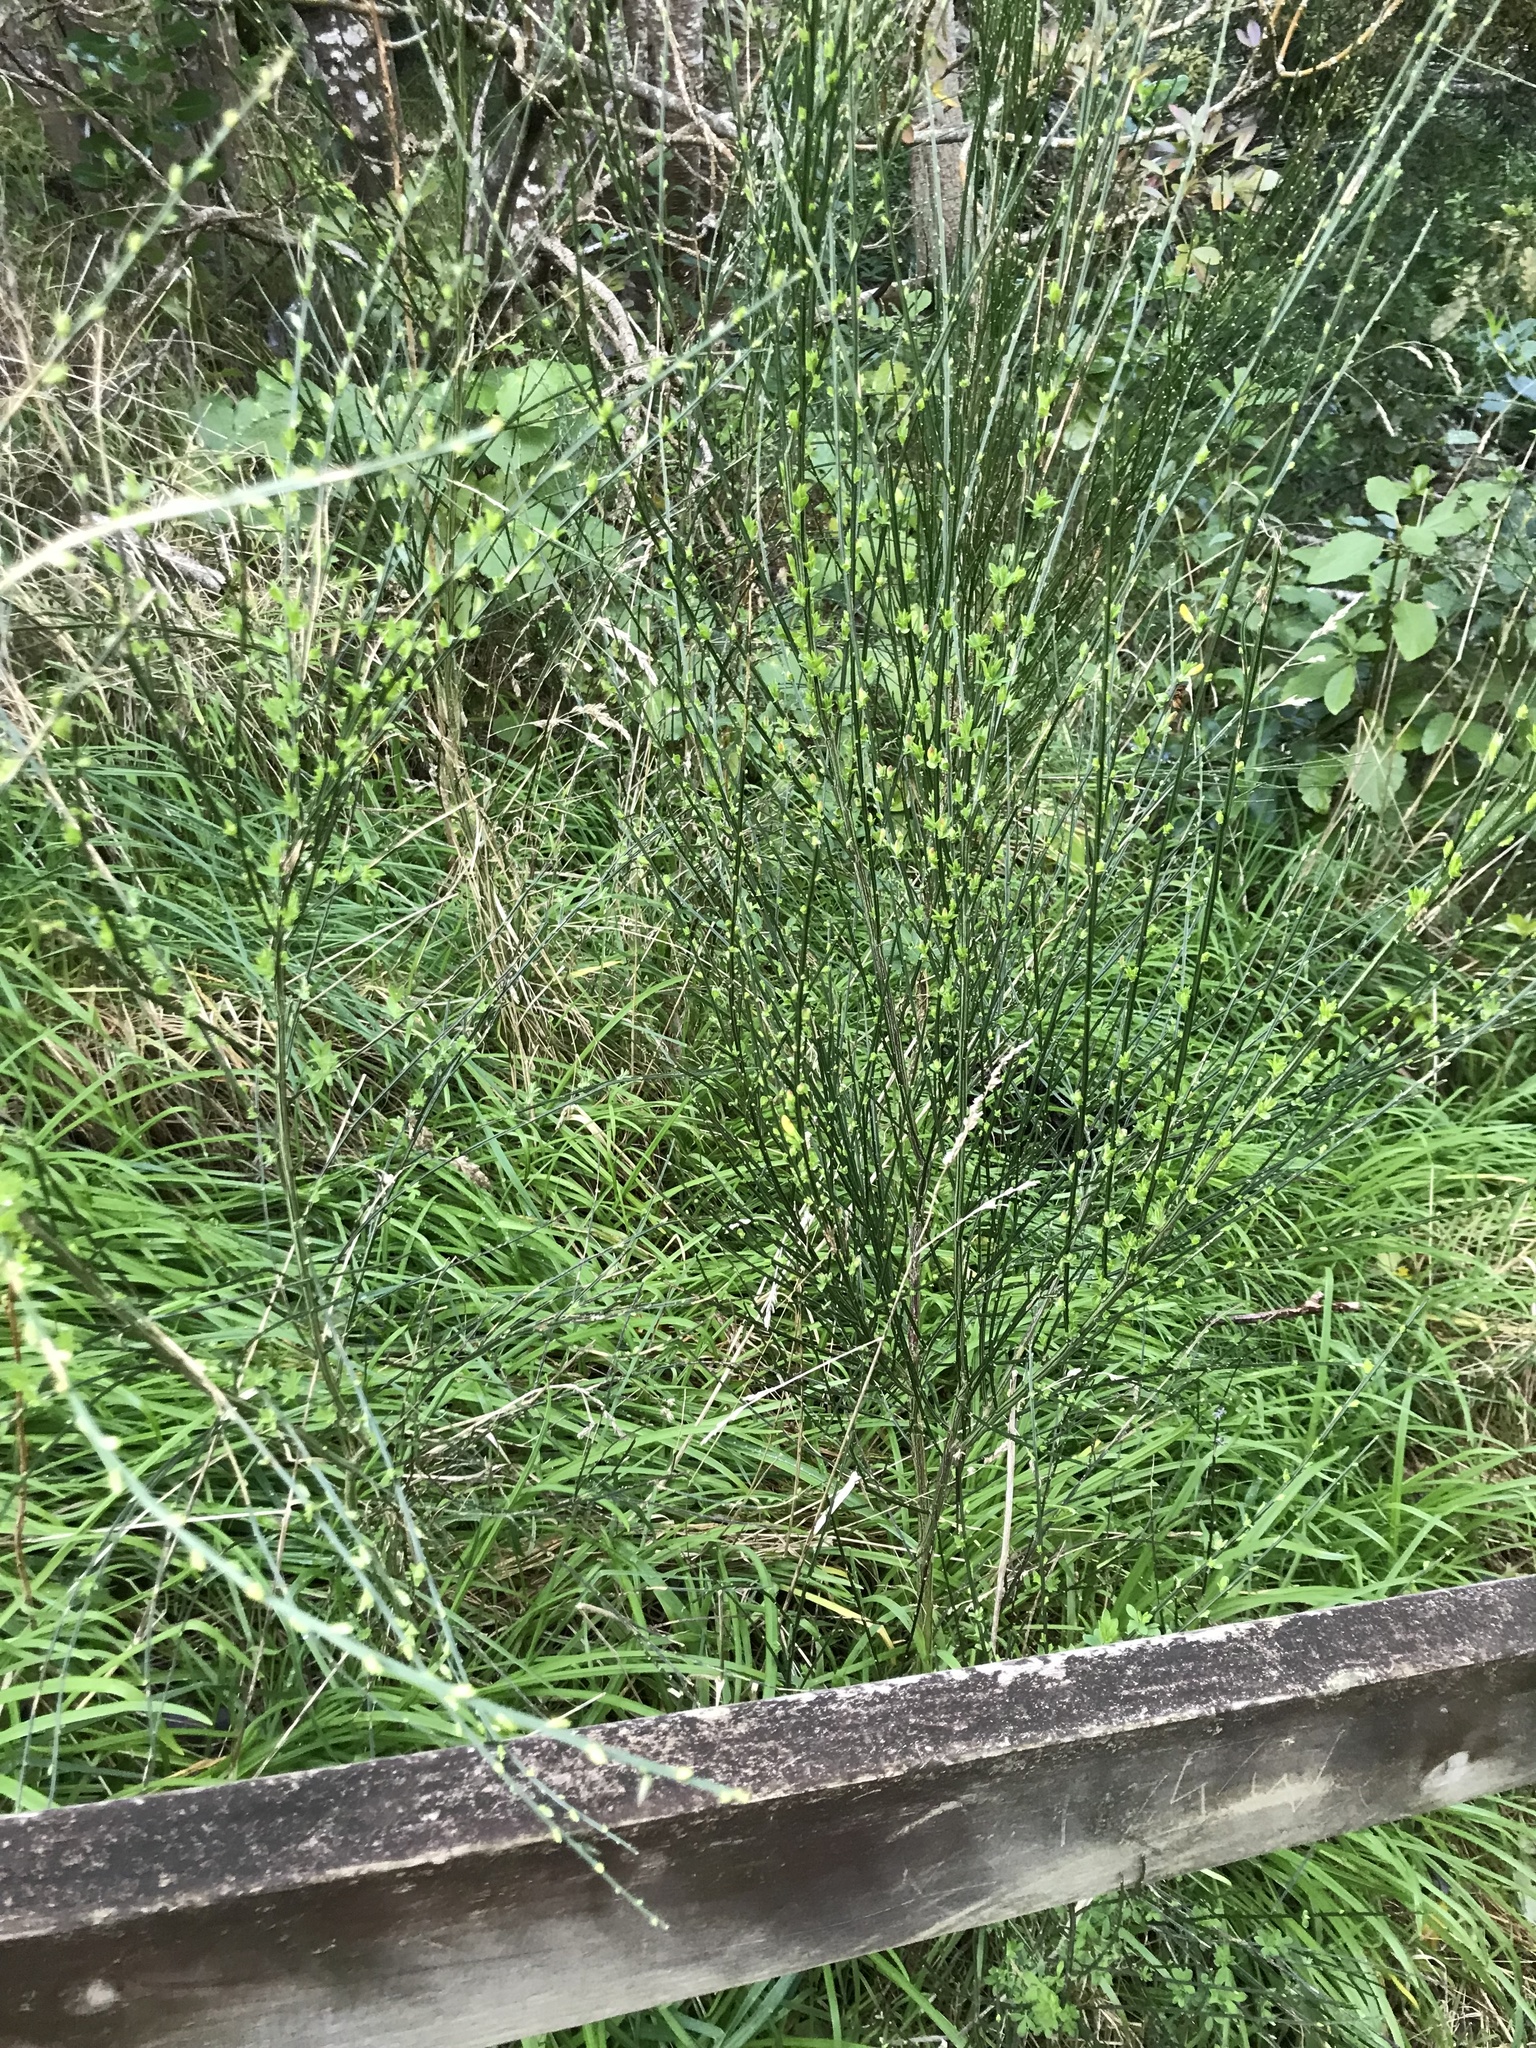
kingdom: Plantae
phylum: Tracheophyta
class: Magnoliopsida
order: Fabales
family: Fabaceae
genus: Cytisus
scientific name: Cytisus scoparius
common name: Scotch broom
